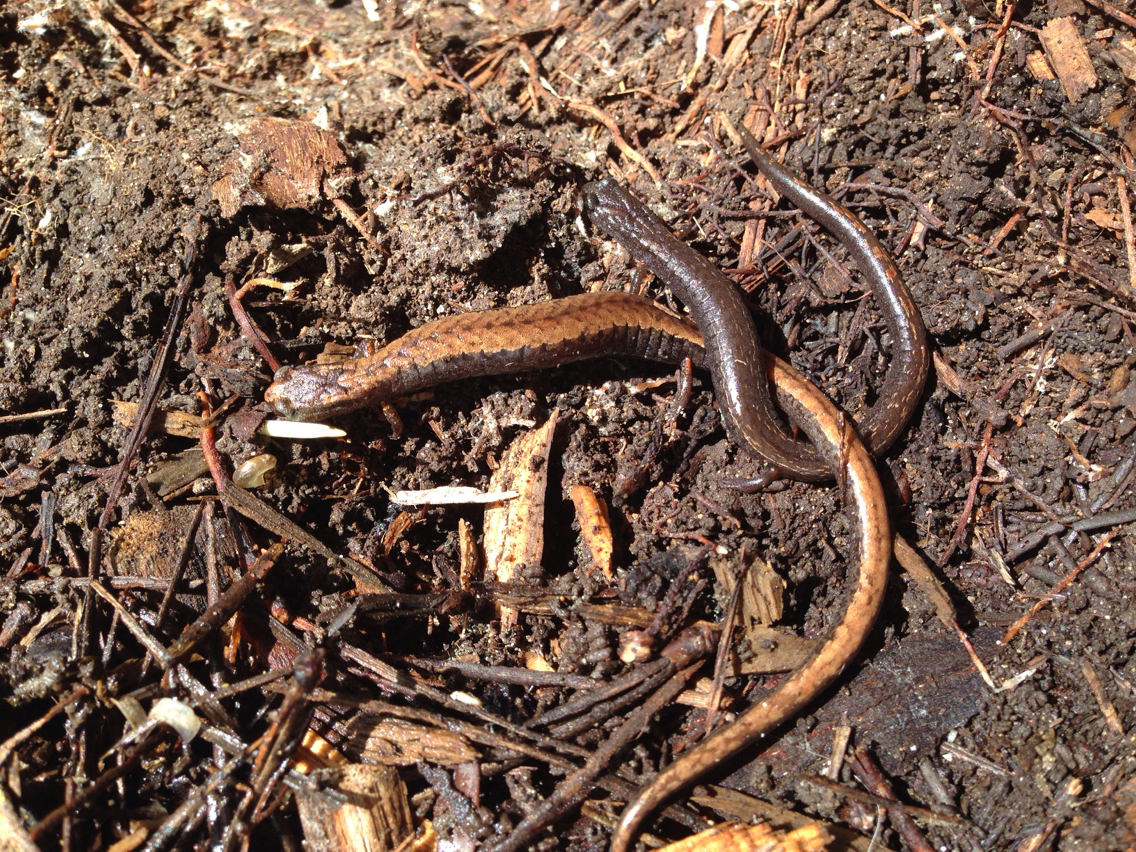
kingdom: Animalia
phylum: Chordata
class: Amphibia
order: Caudata
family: Plethodontidae
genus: Batrachoseps
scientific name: Batrachoseps attenuatus
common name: California slender salamander
